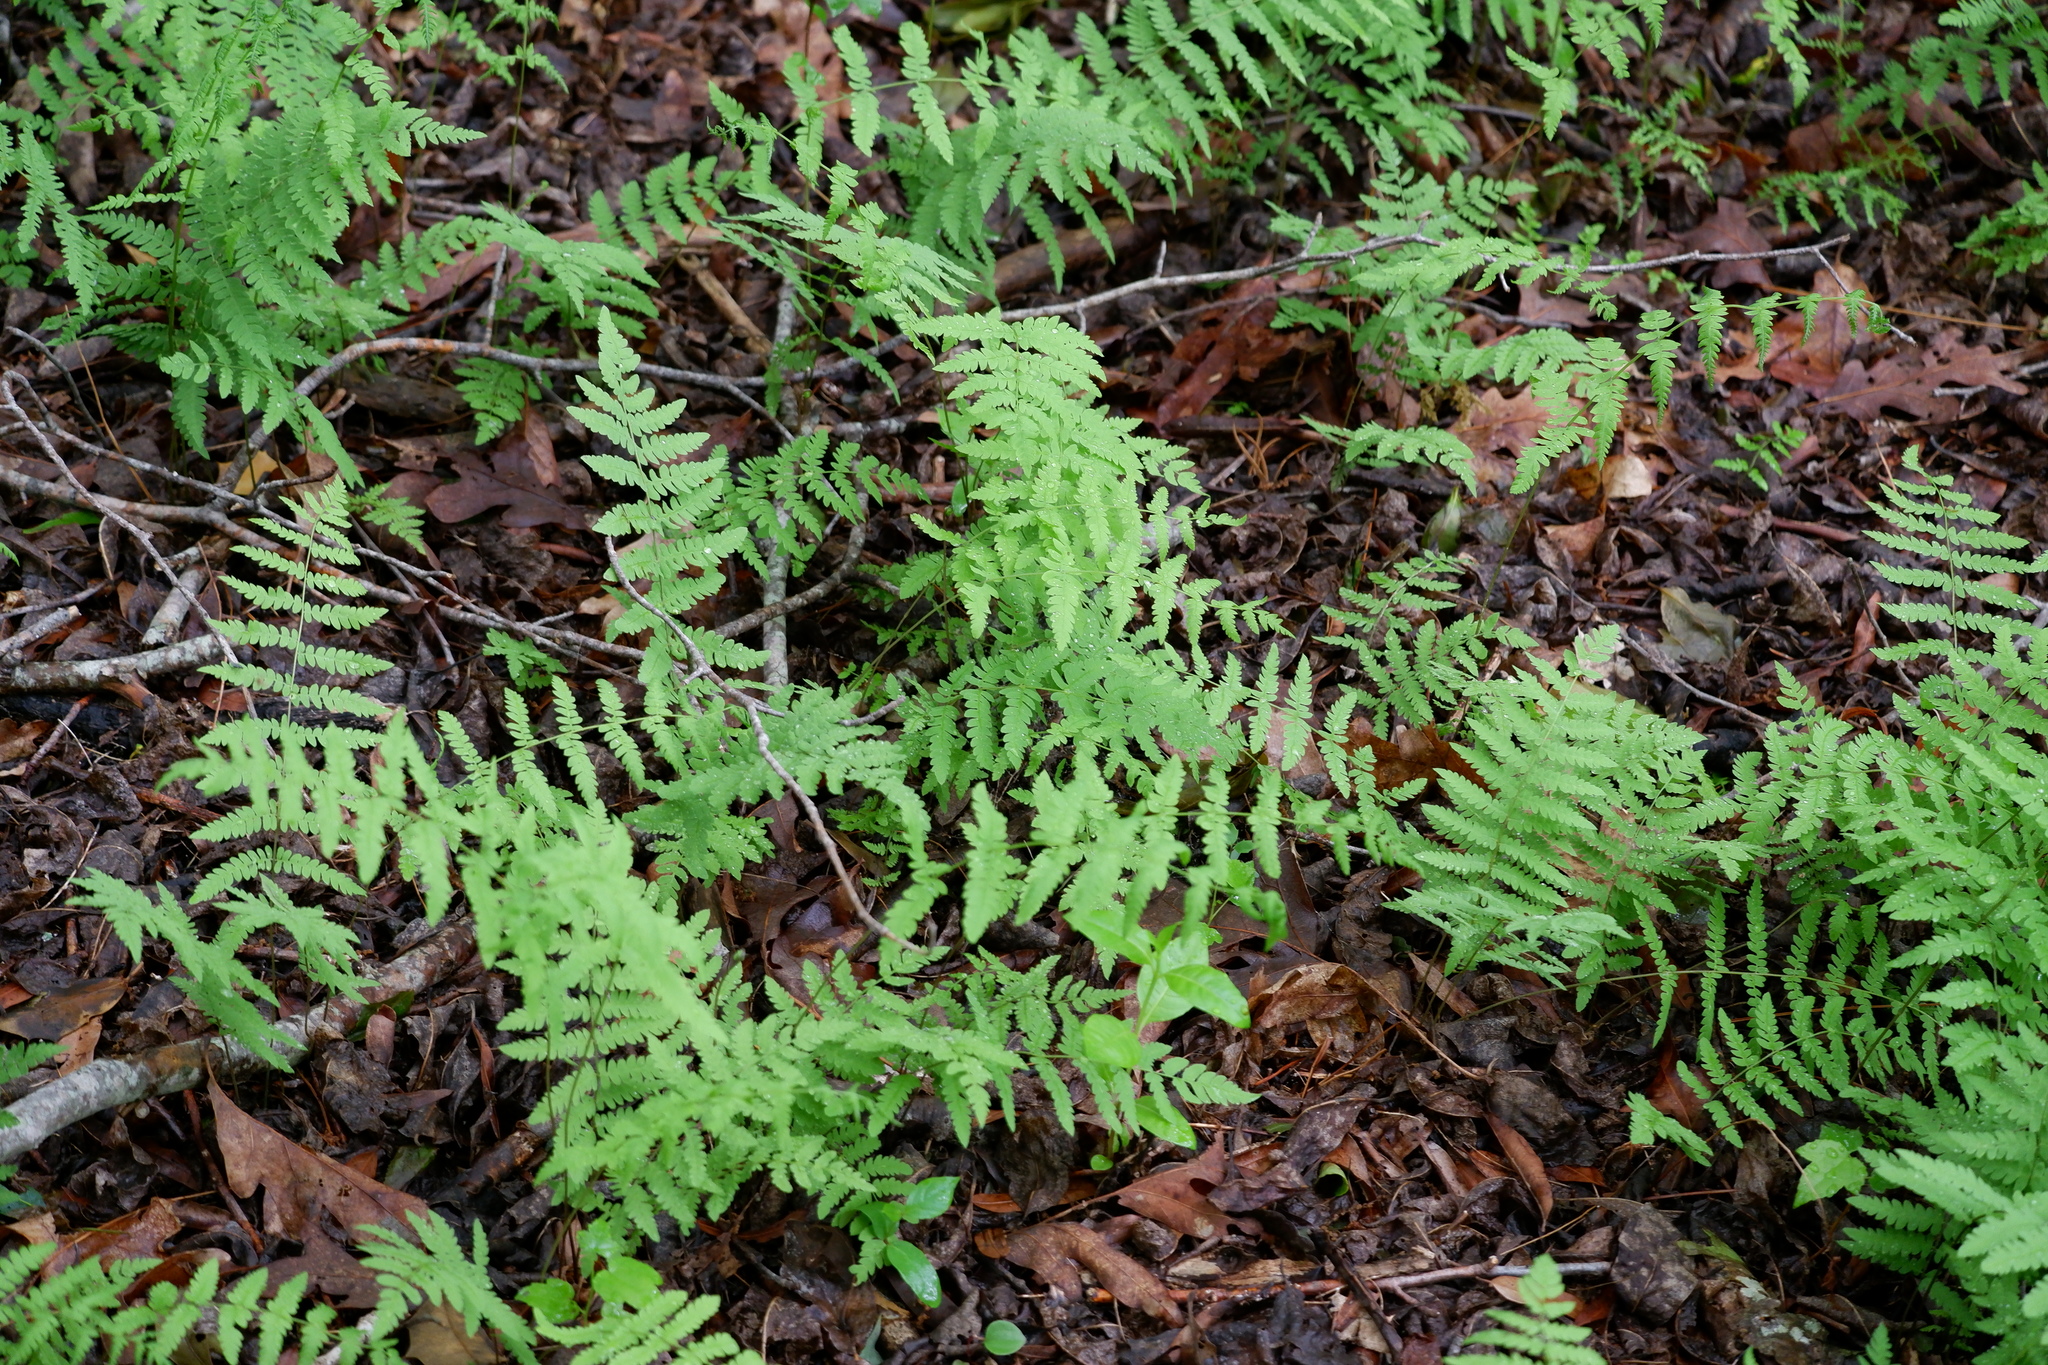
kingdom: Plantae
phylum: Tracheophyta
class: Polypodiopsida
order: Polypodiales
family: Thelypteridaceae
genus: Thelypteris
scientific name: Thelypteris palustris
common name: Marsh fern
